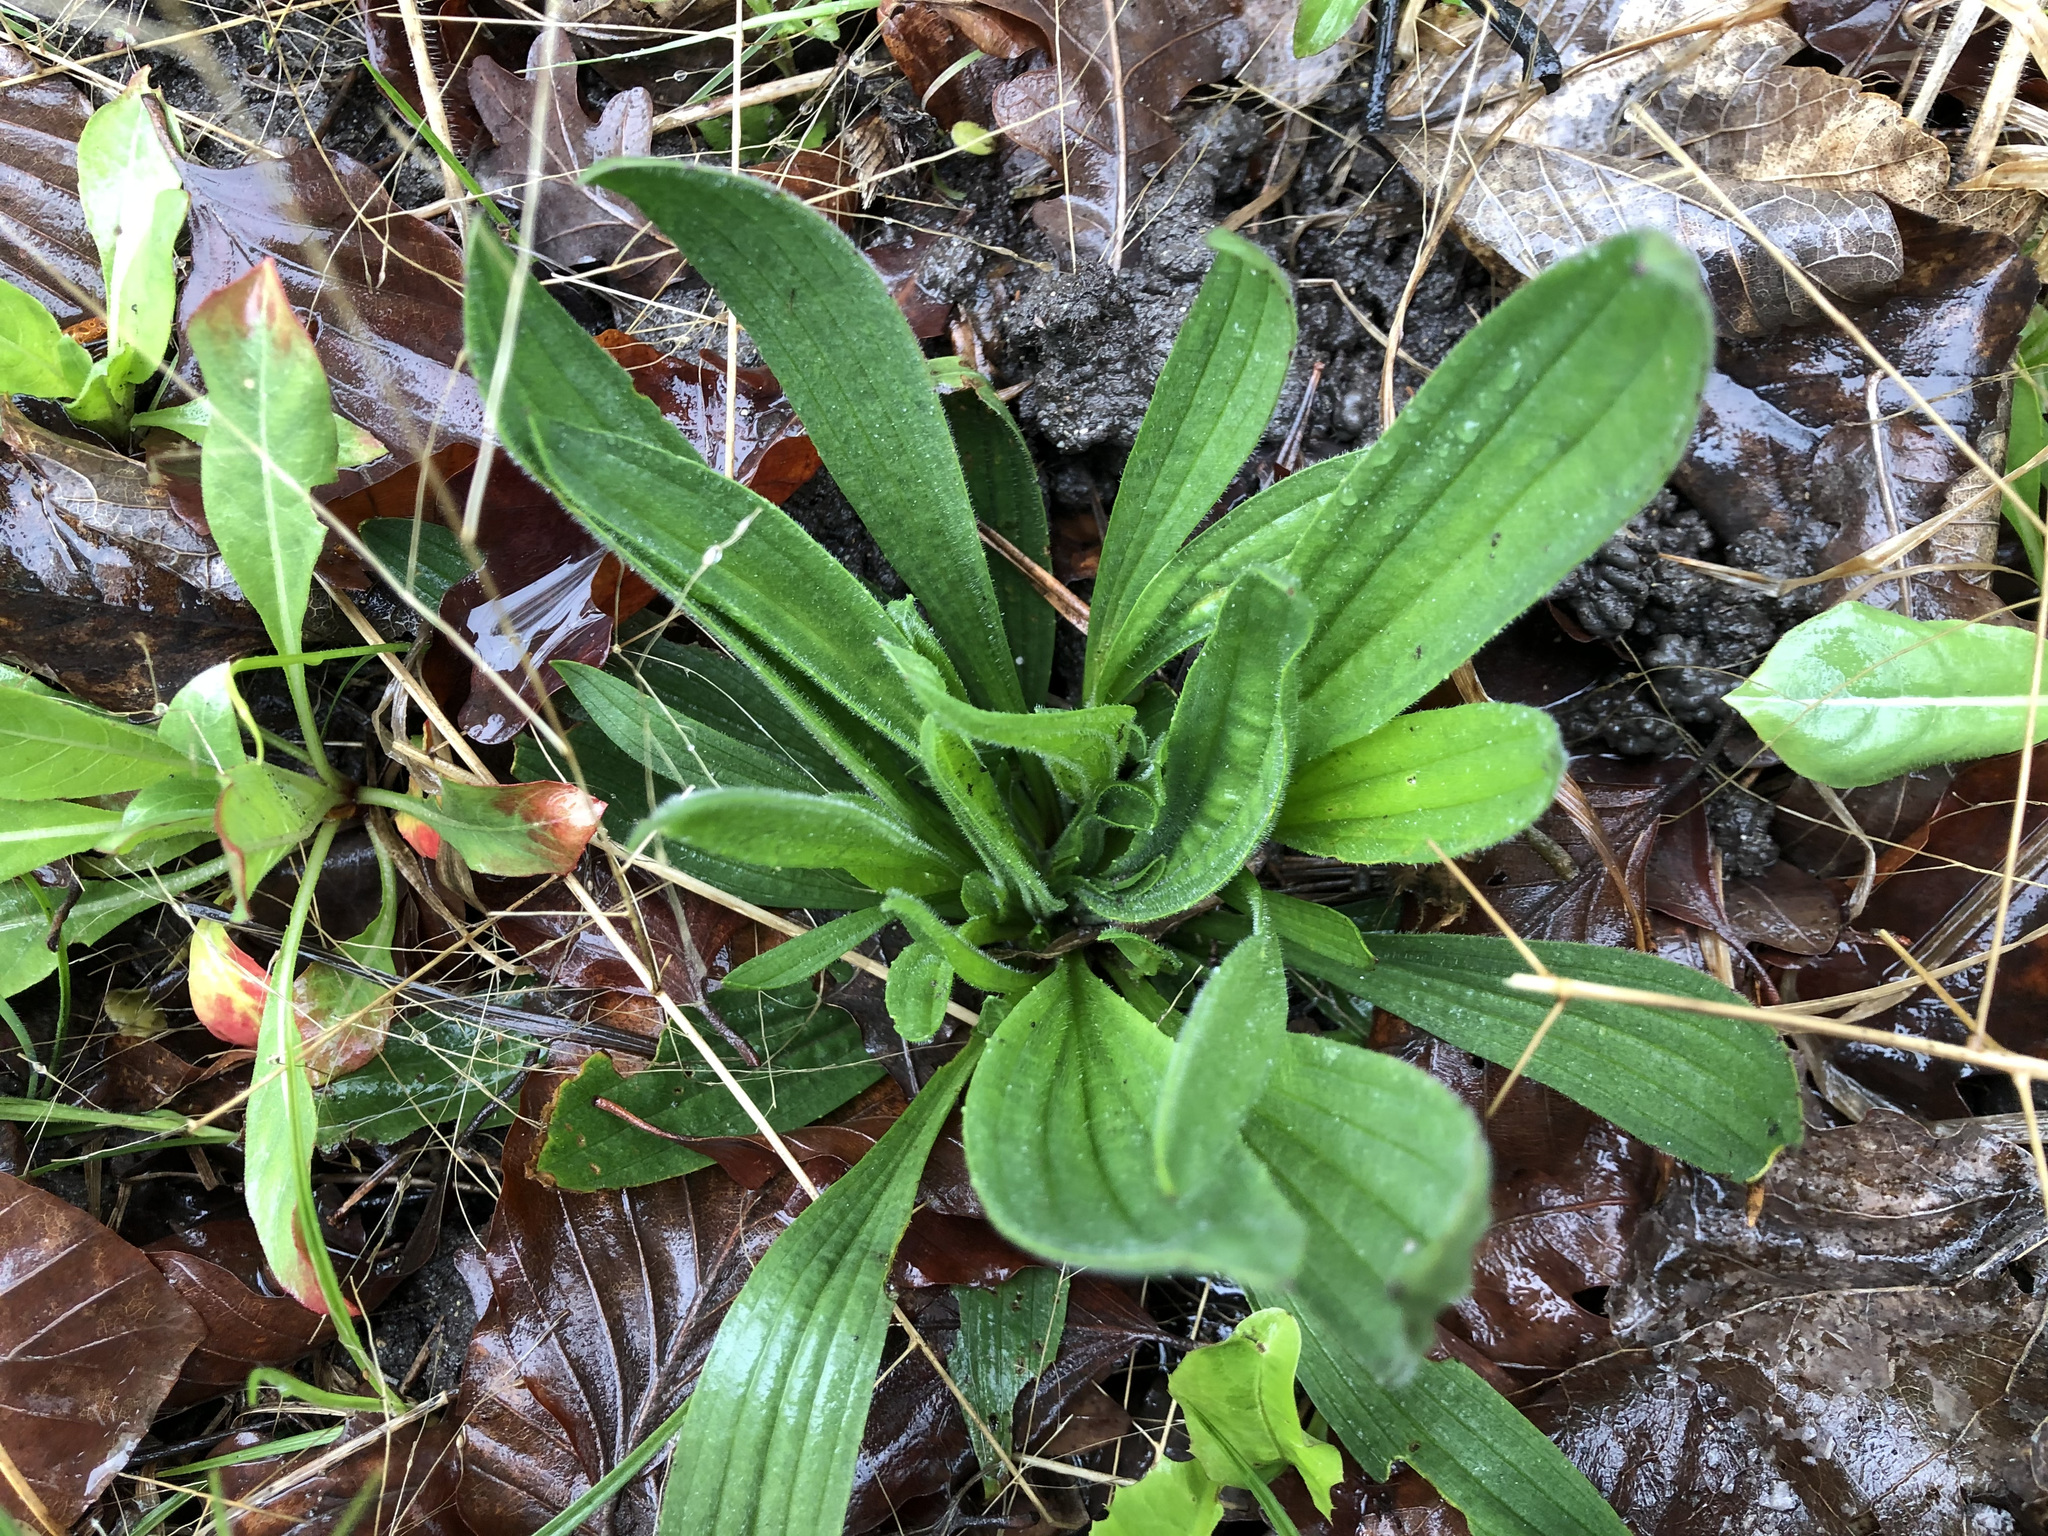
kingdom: Plantae
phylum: Tracheophyta
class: Magnoliopsida
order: Lamiales
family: Plantaginaceae
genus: Plantago
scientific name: Plantago lanceolata
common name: Ribwort plantain
